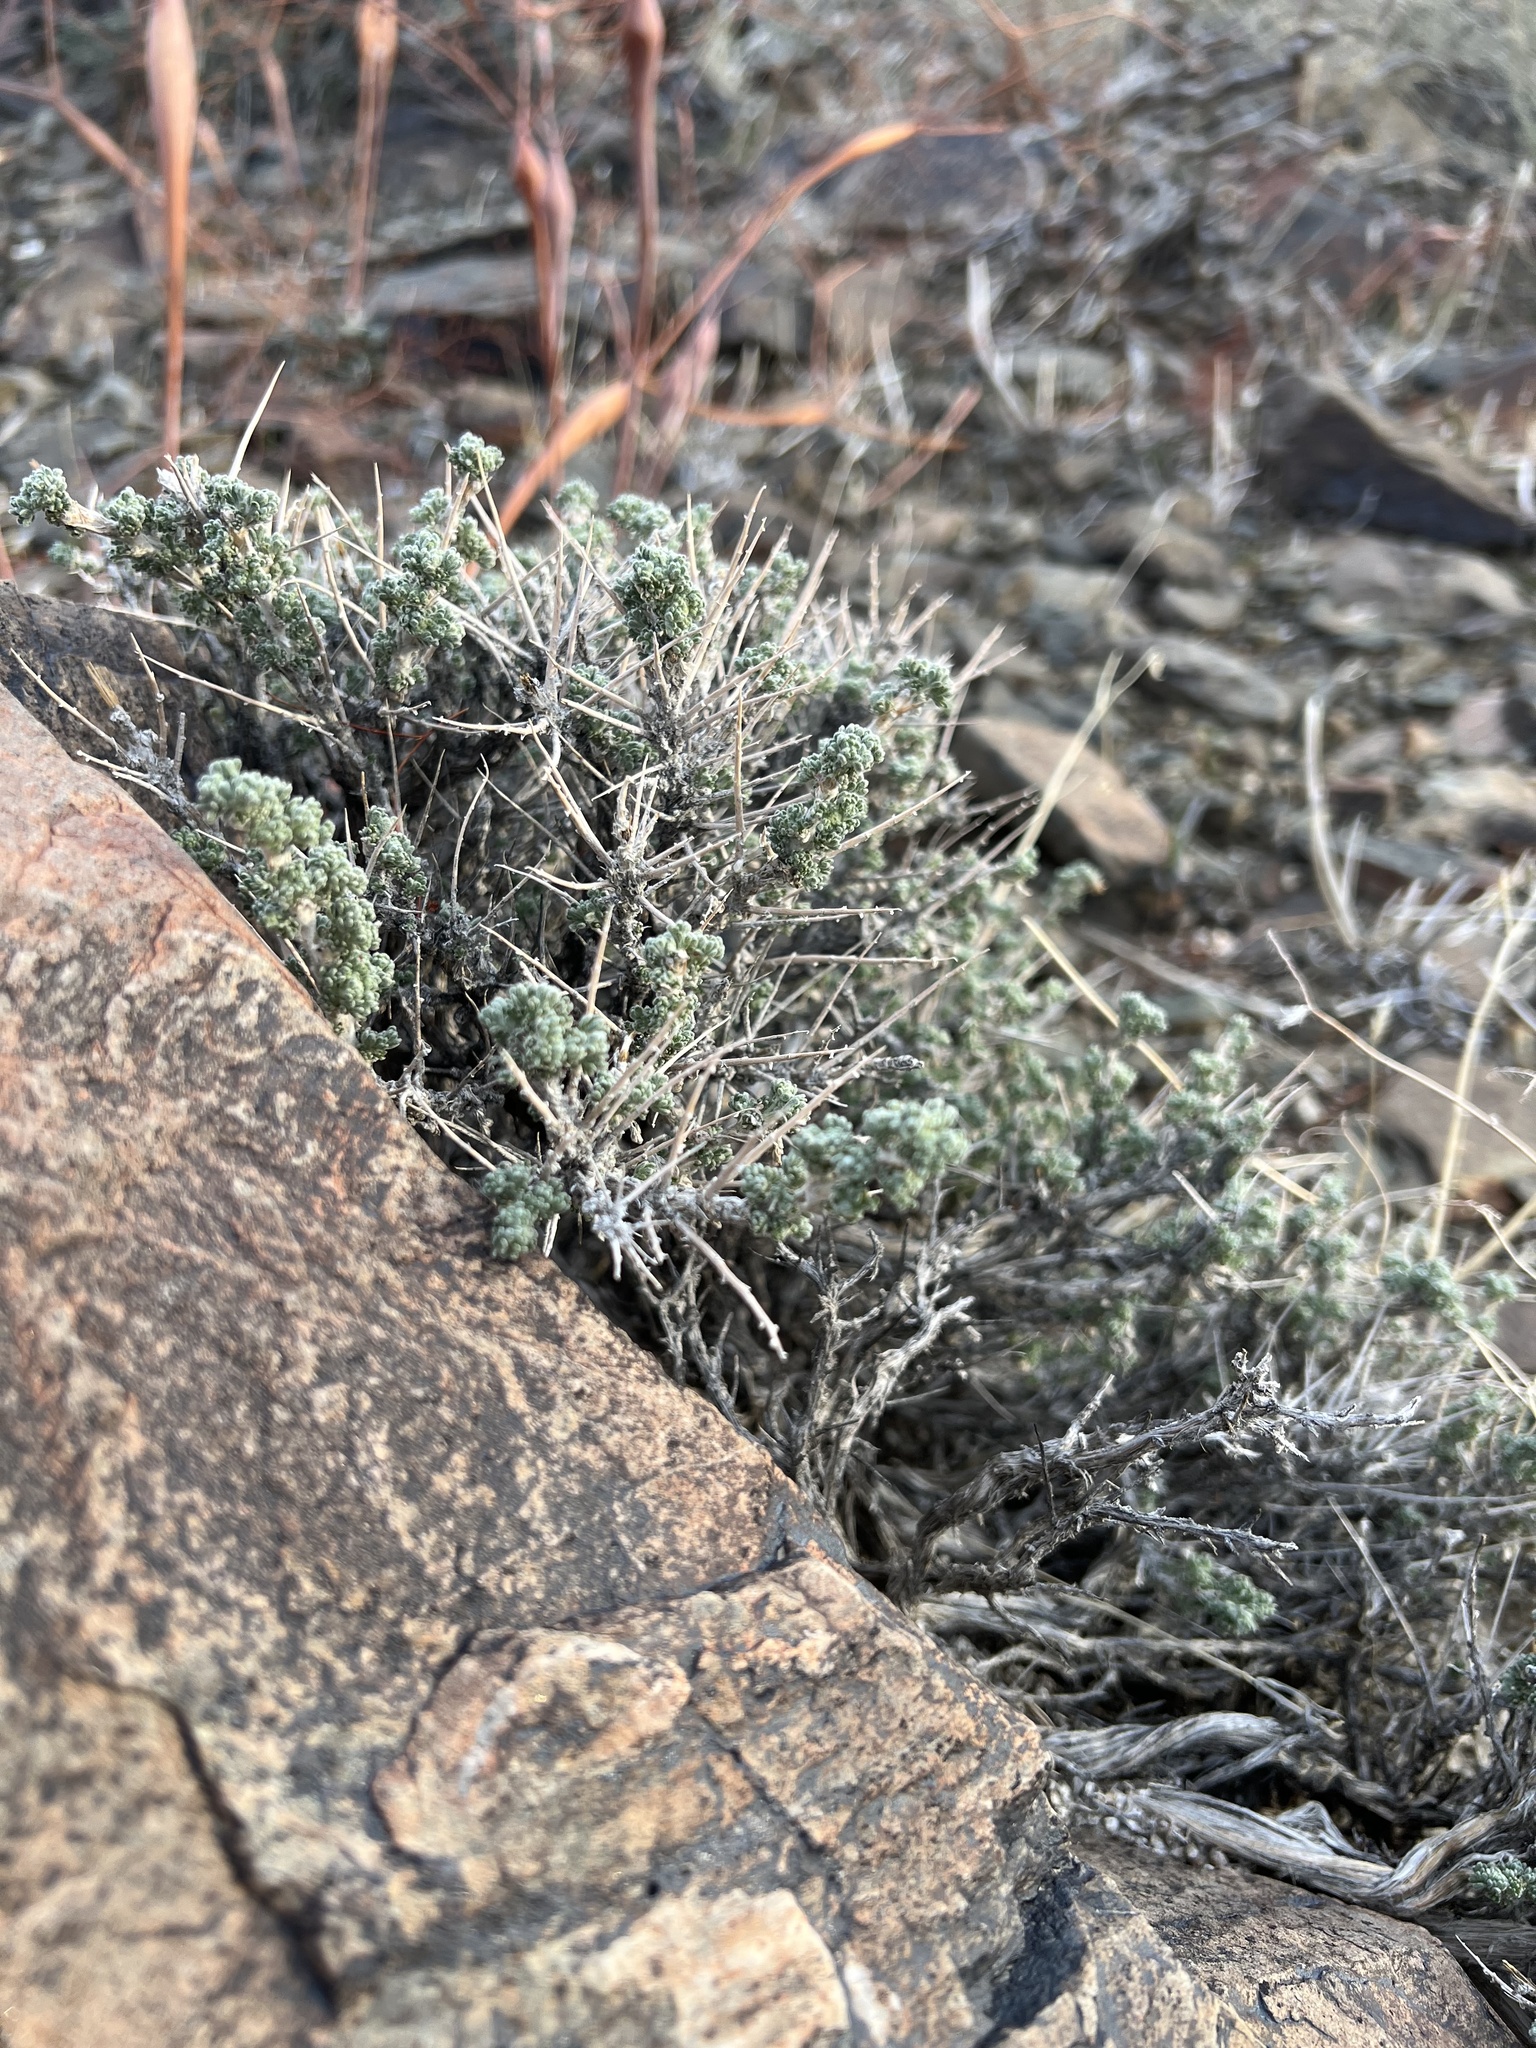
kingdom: Plantae
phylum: Tracheophyta
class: Magnoliopsida
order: Asterales
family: Asteraceae
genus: Artemisia
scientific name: Artemisia spinescens
